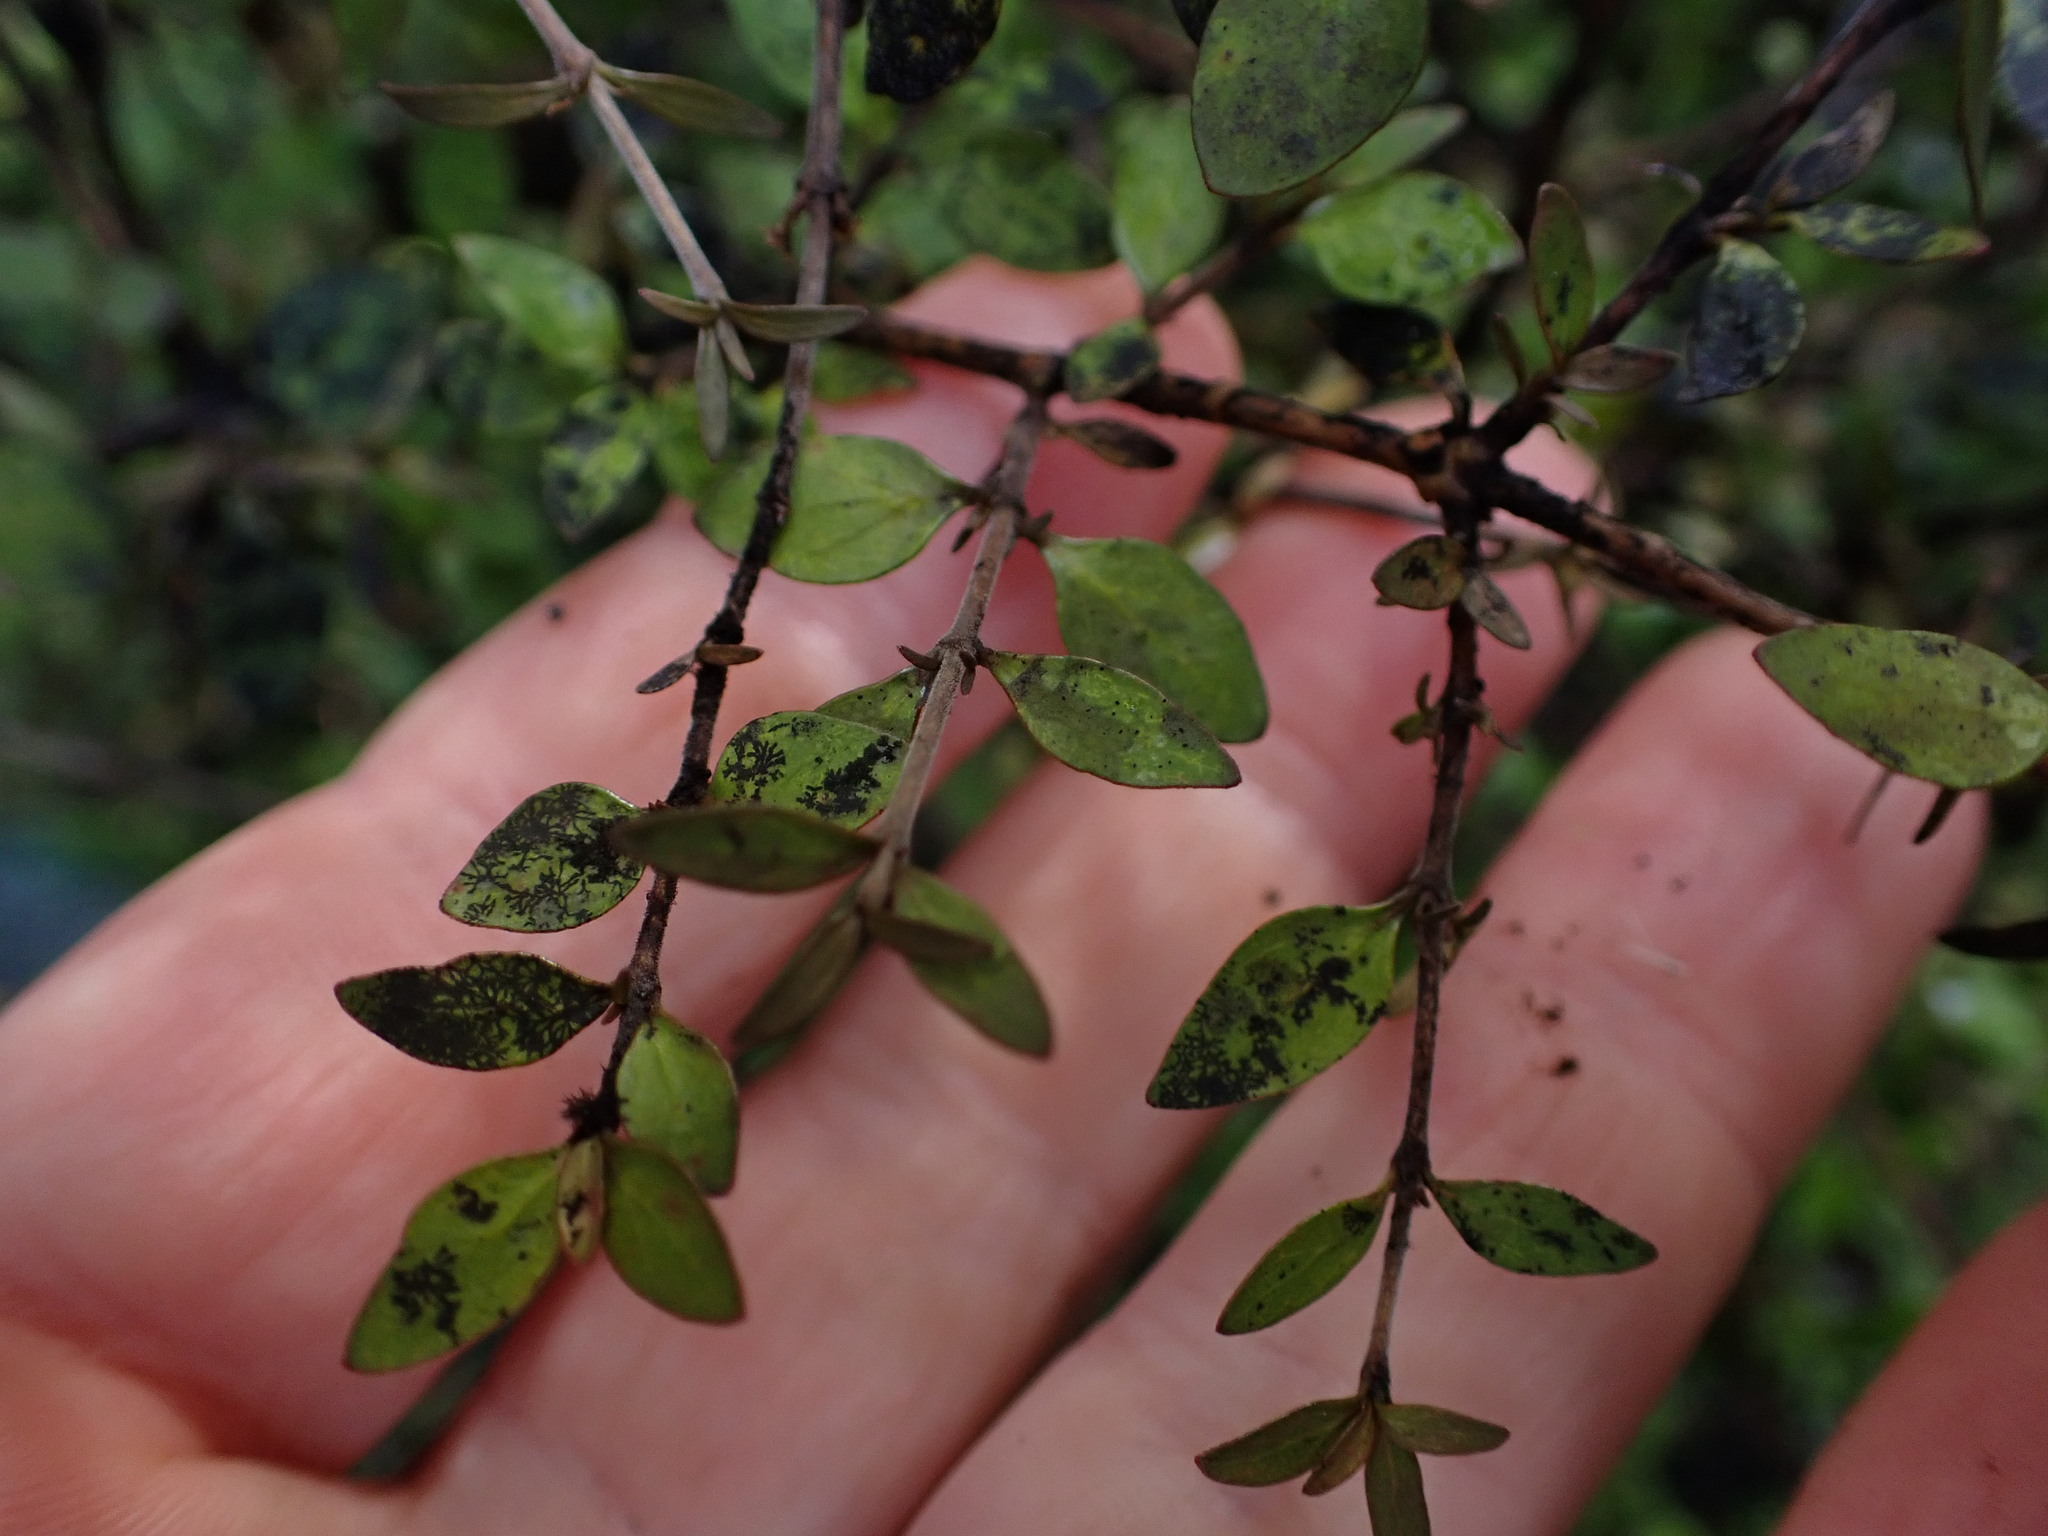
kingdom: Plantae
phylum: Tracheophyta
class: Magnoliopsida
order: Gentianales
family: Rubiaceae
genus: Coprosma
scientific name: Coprosma rhamnoides
